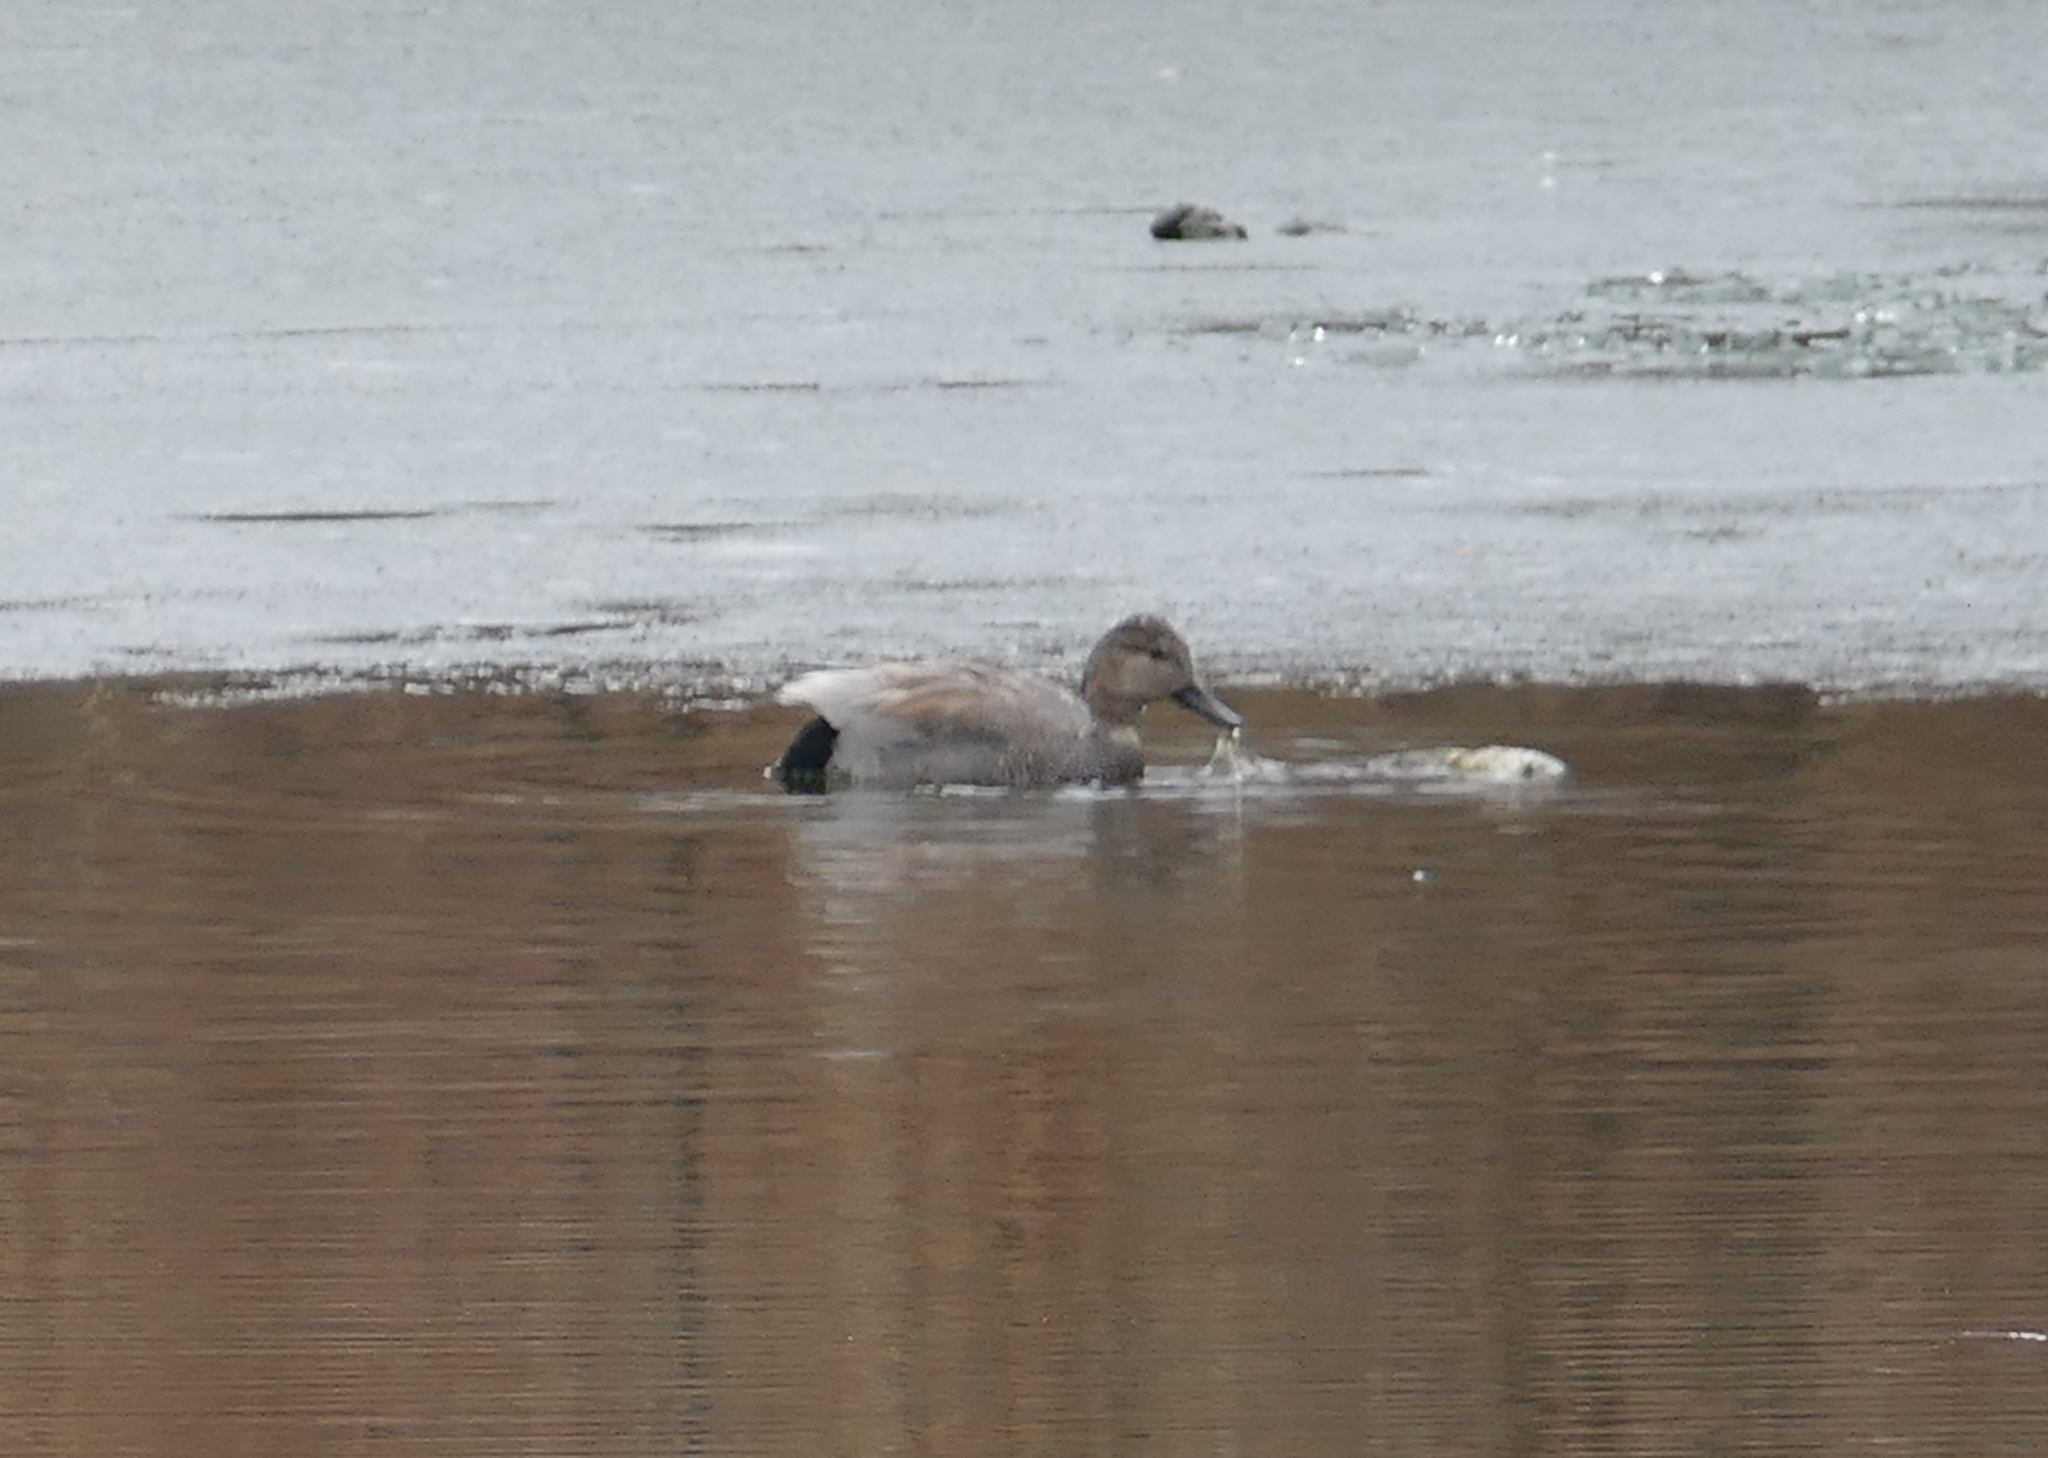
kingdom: Animalia
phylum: Chordata
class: Aves
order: Anseriformes
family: Anatidae
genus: Mareca
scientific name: Mareca strepera
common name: Gadwall
